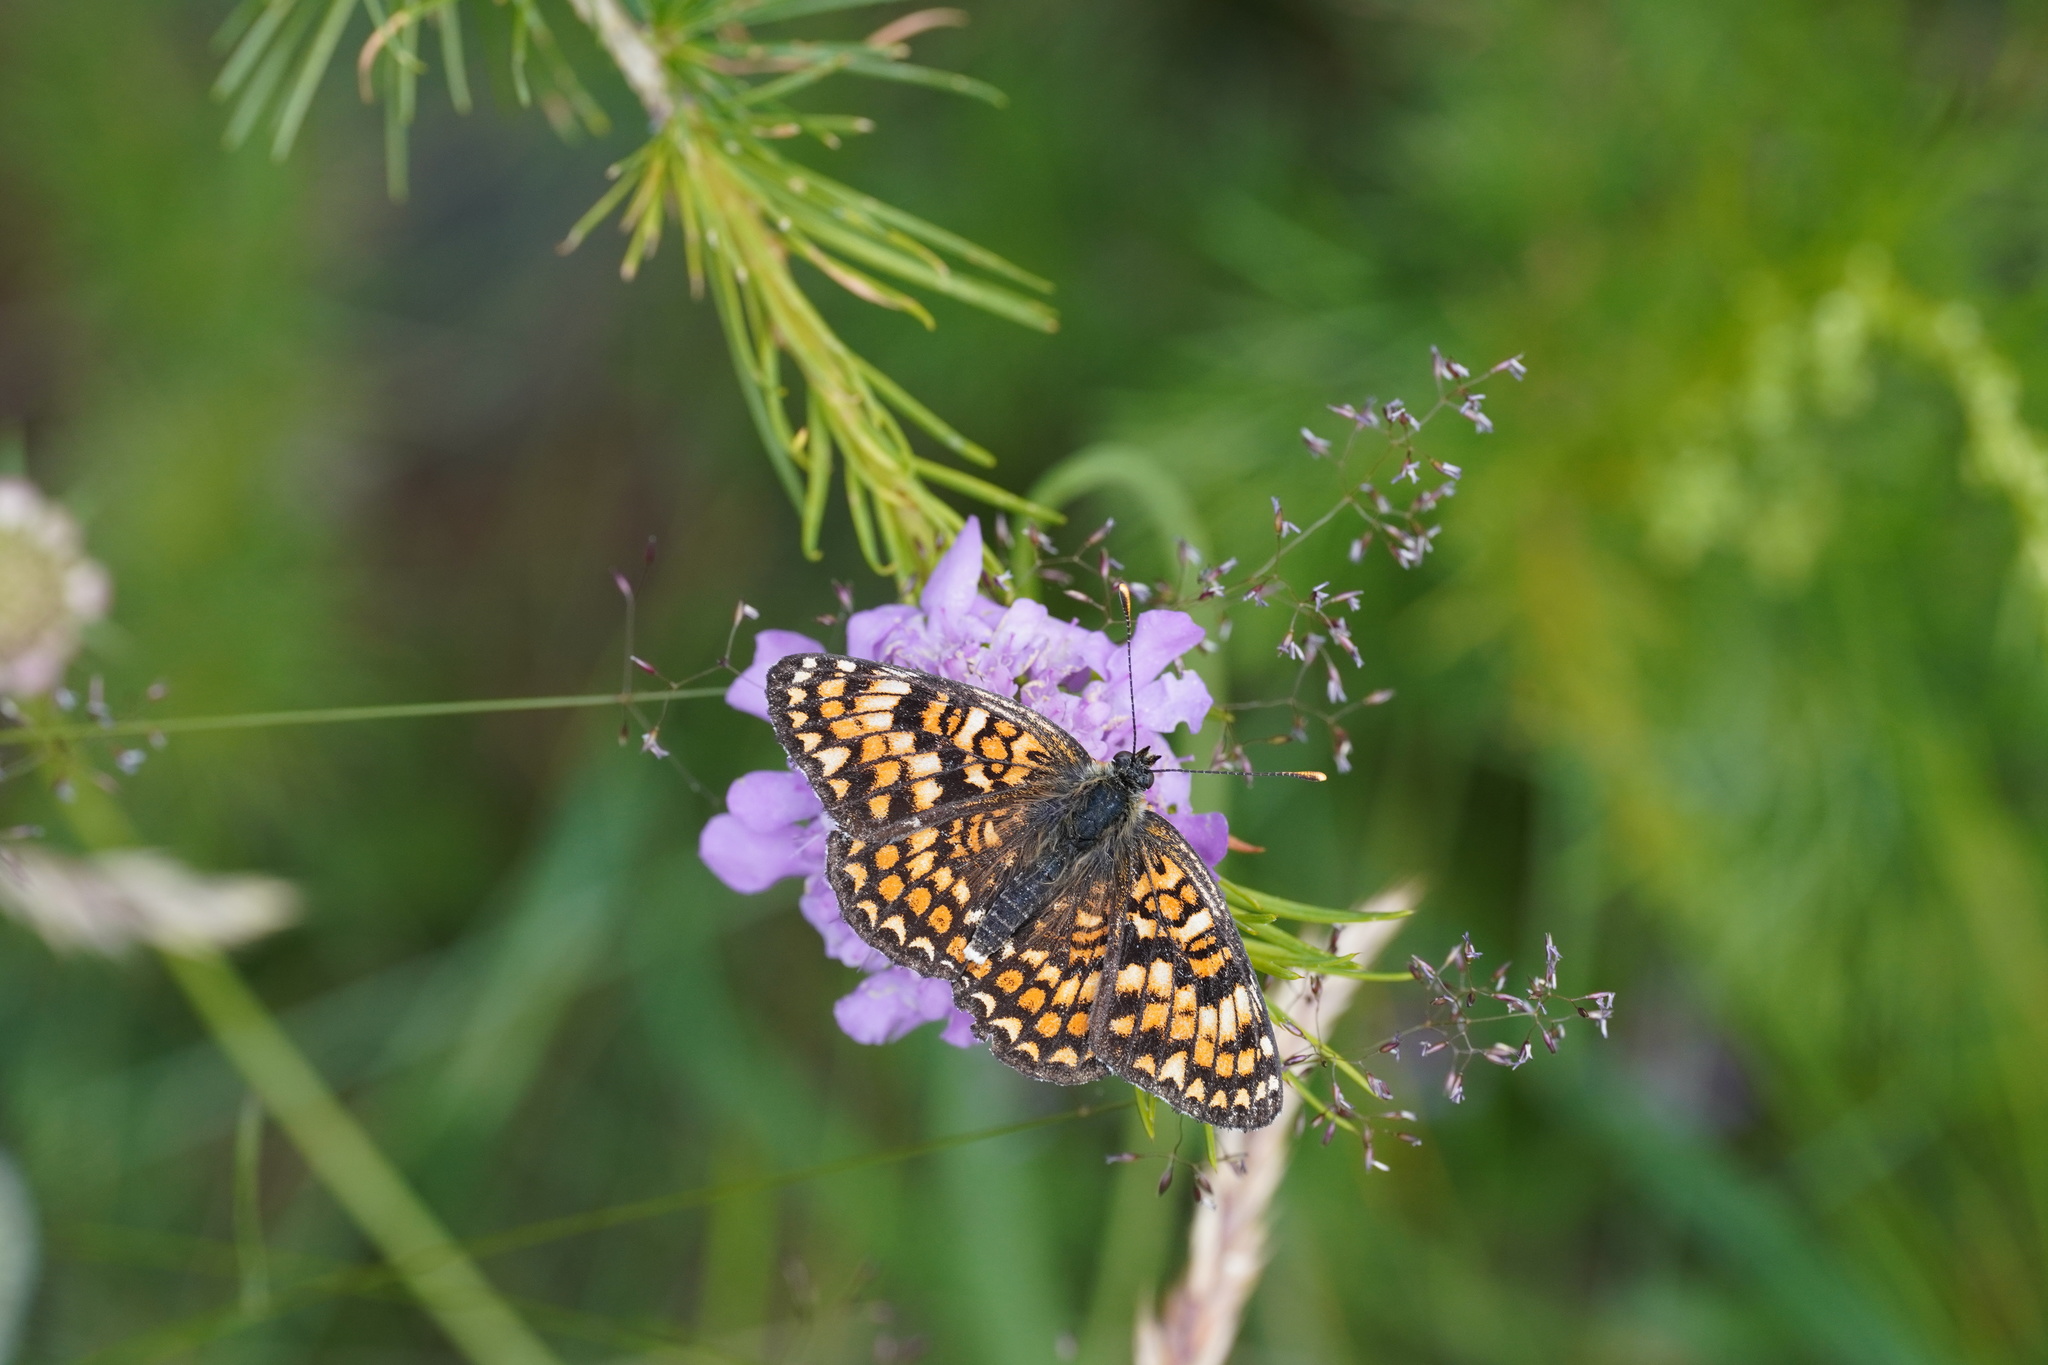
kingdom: Animalia
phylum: Arthropoda
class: Insecta
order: Lepidoptera
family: Nymphalidae
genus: Melitaea
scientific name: Melitaea phoebe
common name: Knapweed fritillary
